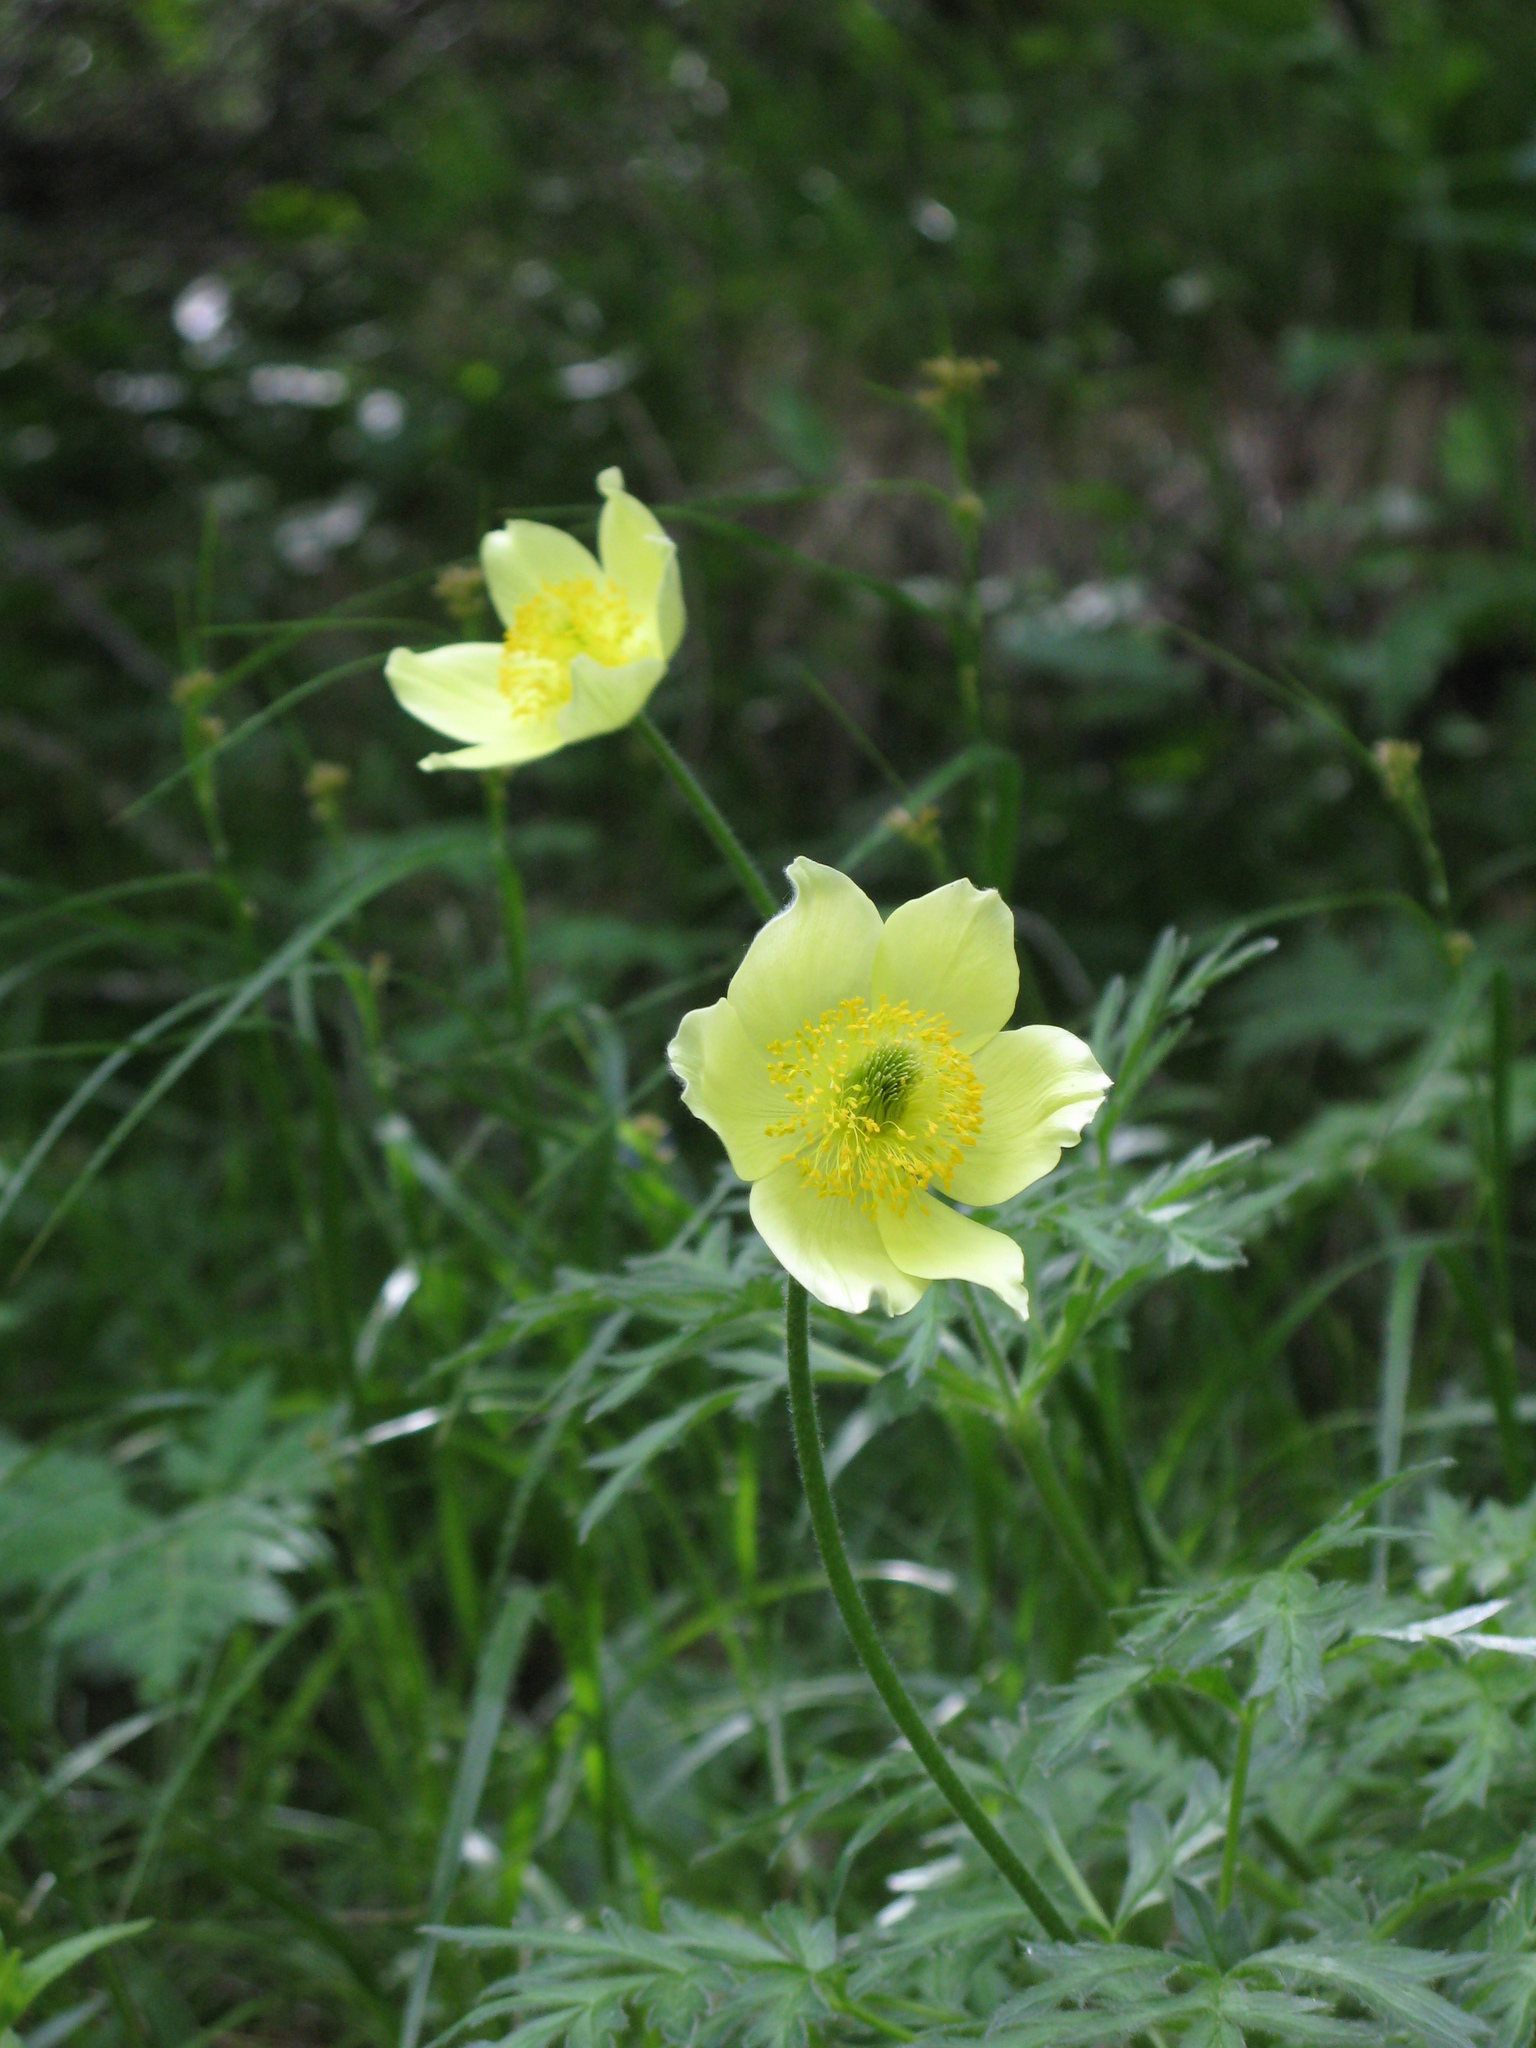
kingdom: Plantae
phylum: Tracheophyta
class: Magnoliopsida
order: Ranunculales
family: Ranunculaceae
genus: Pulsatilla
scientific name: Pulsatilla alpina
